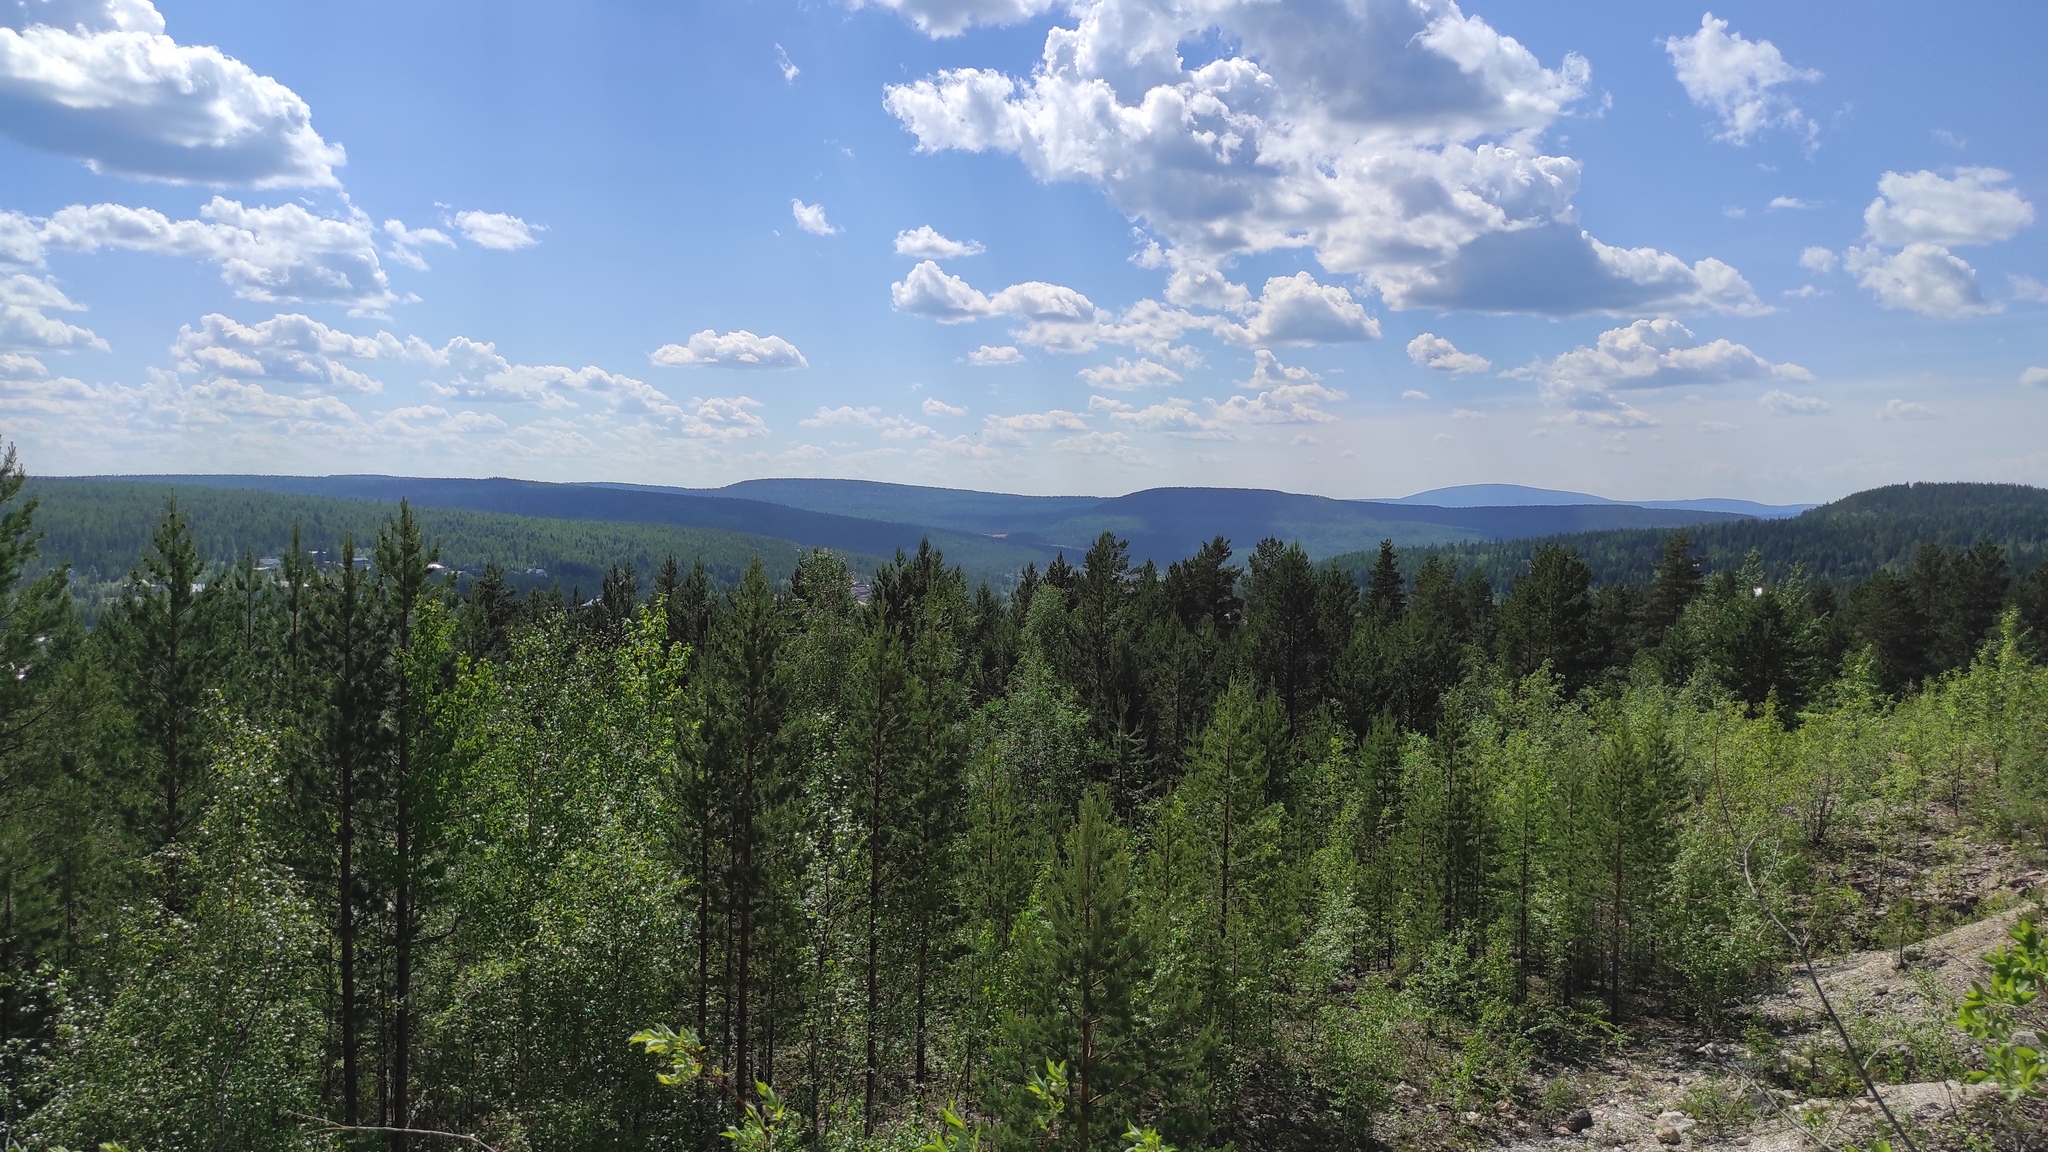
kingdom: Plantae
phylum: Tracheophyta
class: Pinopsida
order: Pinales
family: Pinaceae
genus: Larix
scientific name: Larix gmelinii
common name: Dahurian larch
